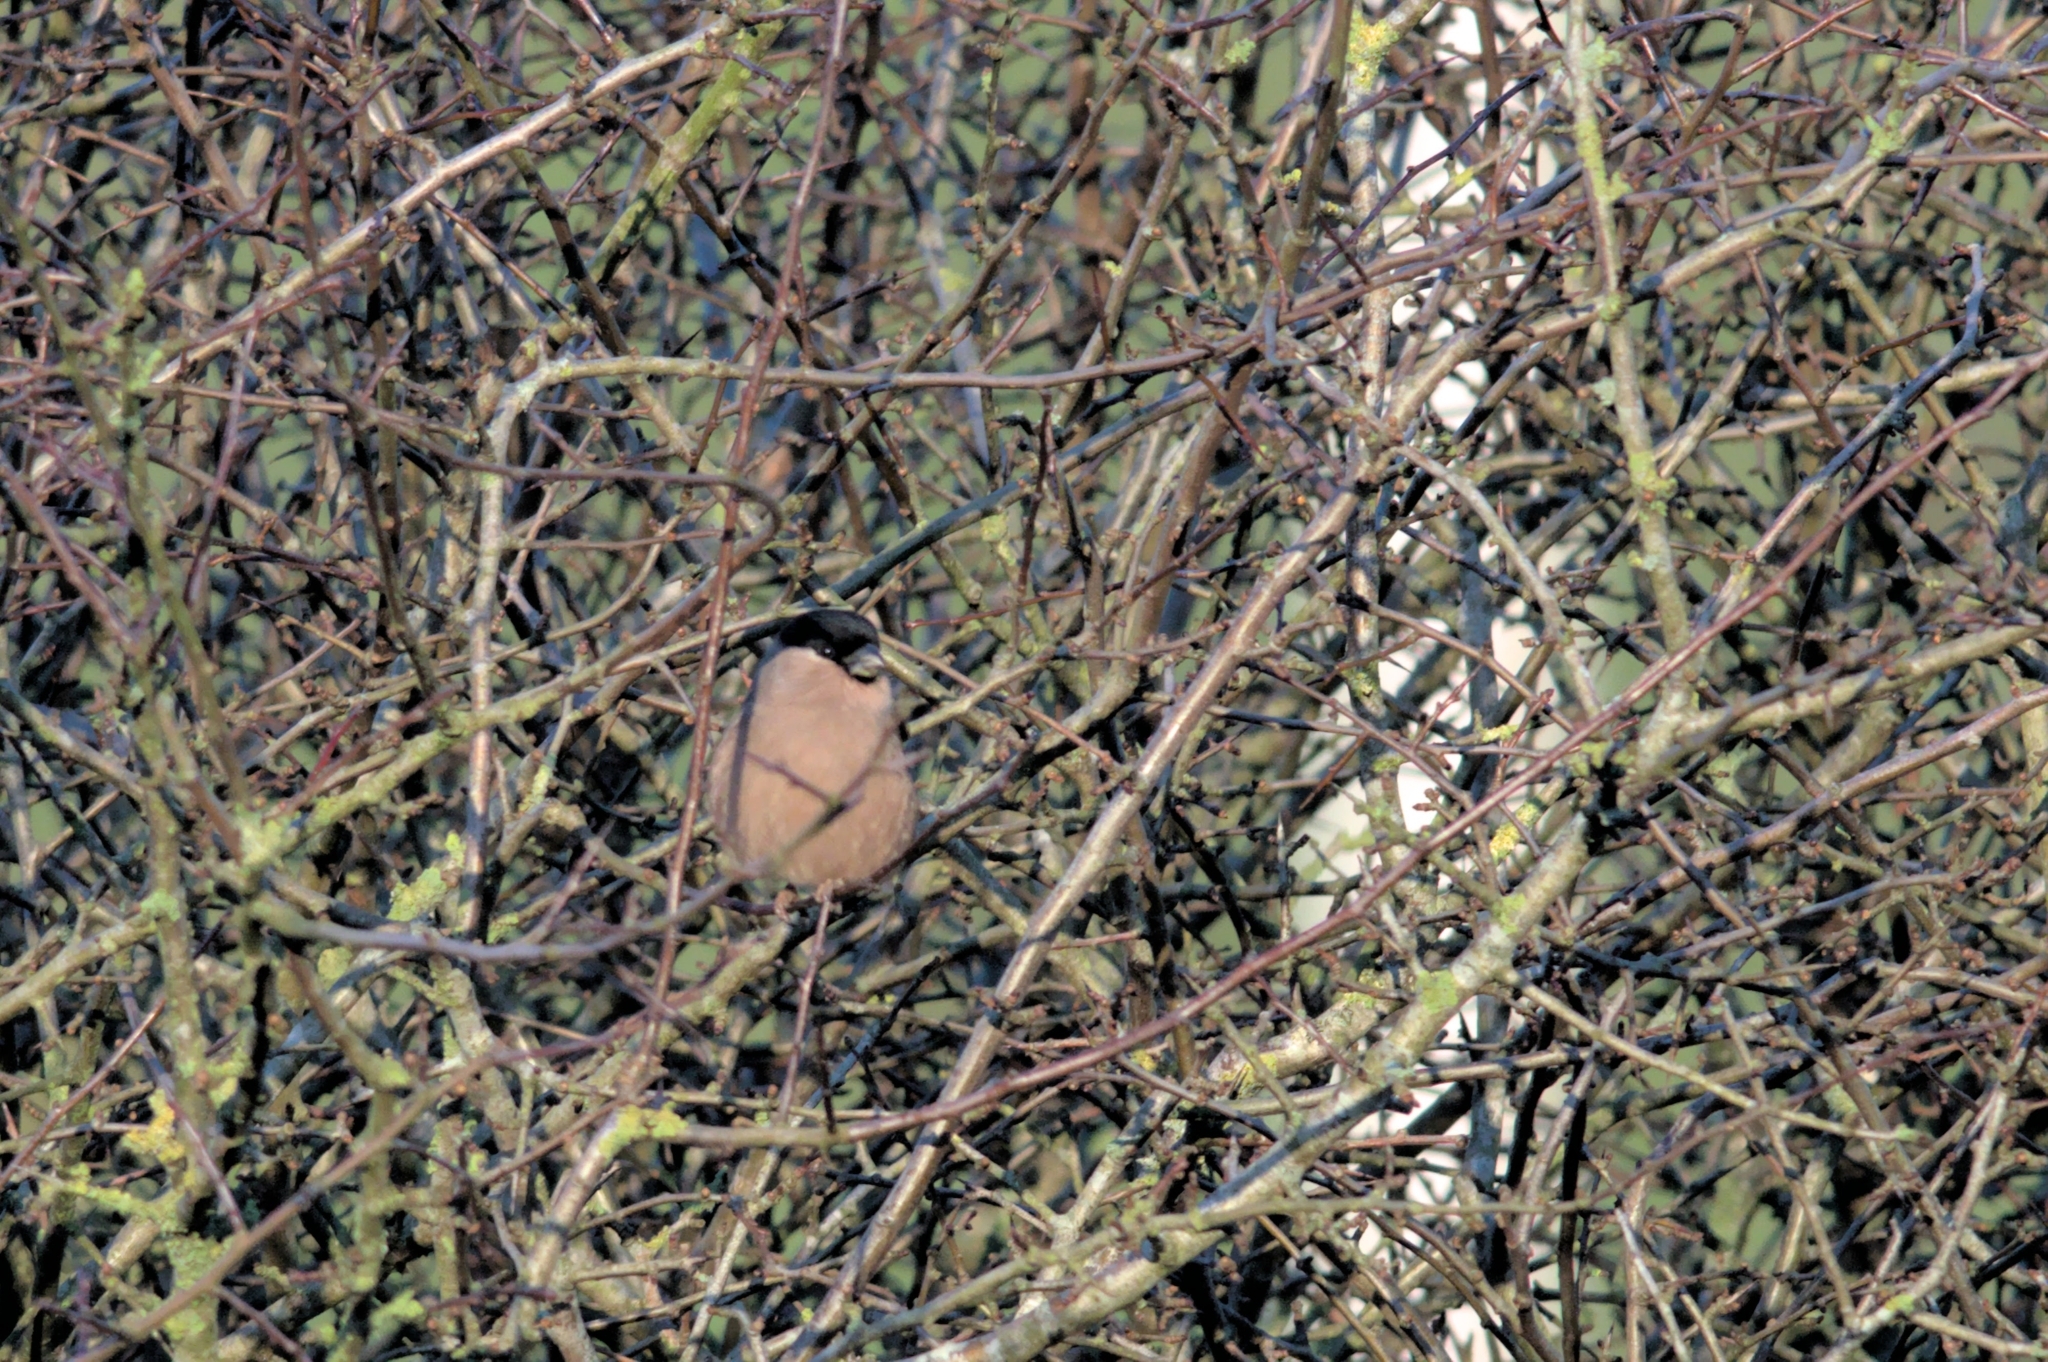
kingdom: Animalia
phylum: Chordata
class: Aves
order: Passeriformes
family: Fringillidae
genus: Pyrrhula
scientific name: Pyrrhula pyrrhula
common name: Eurasian bullfinch
